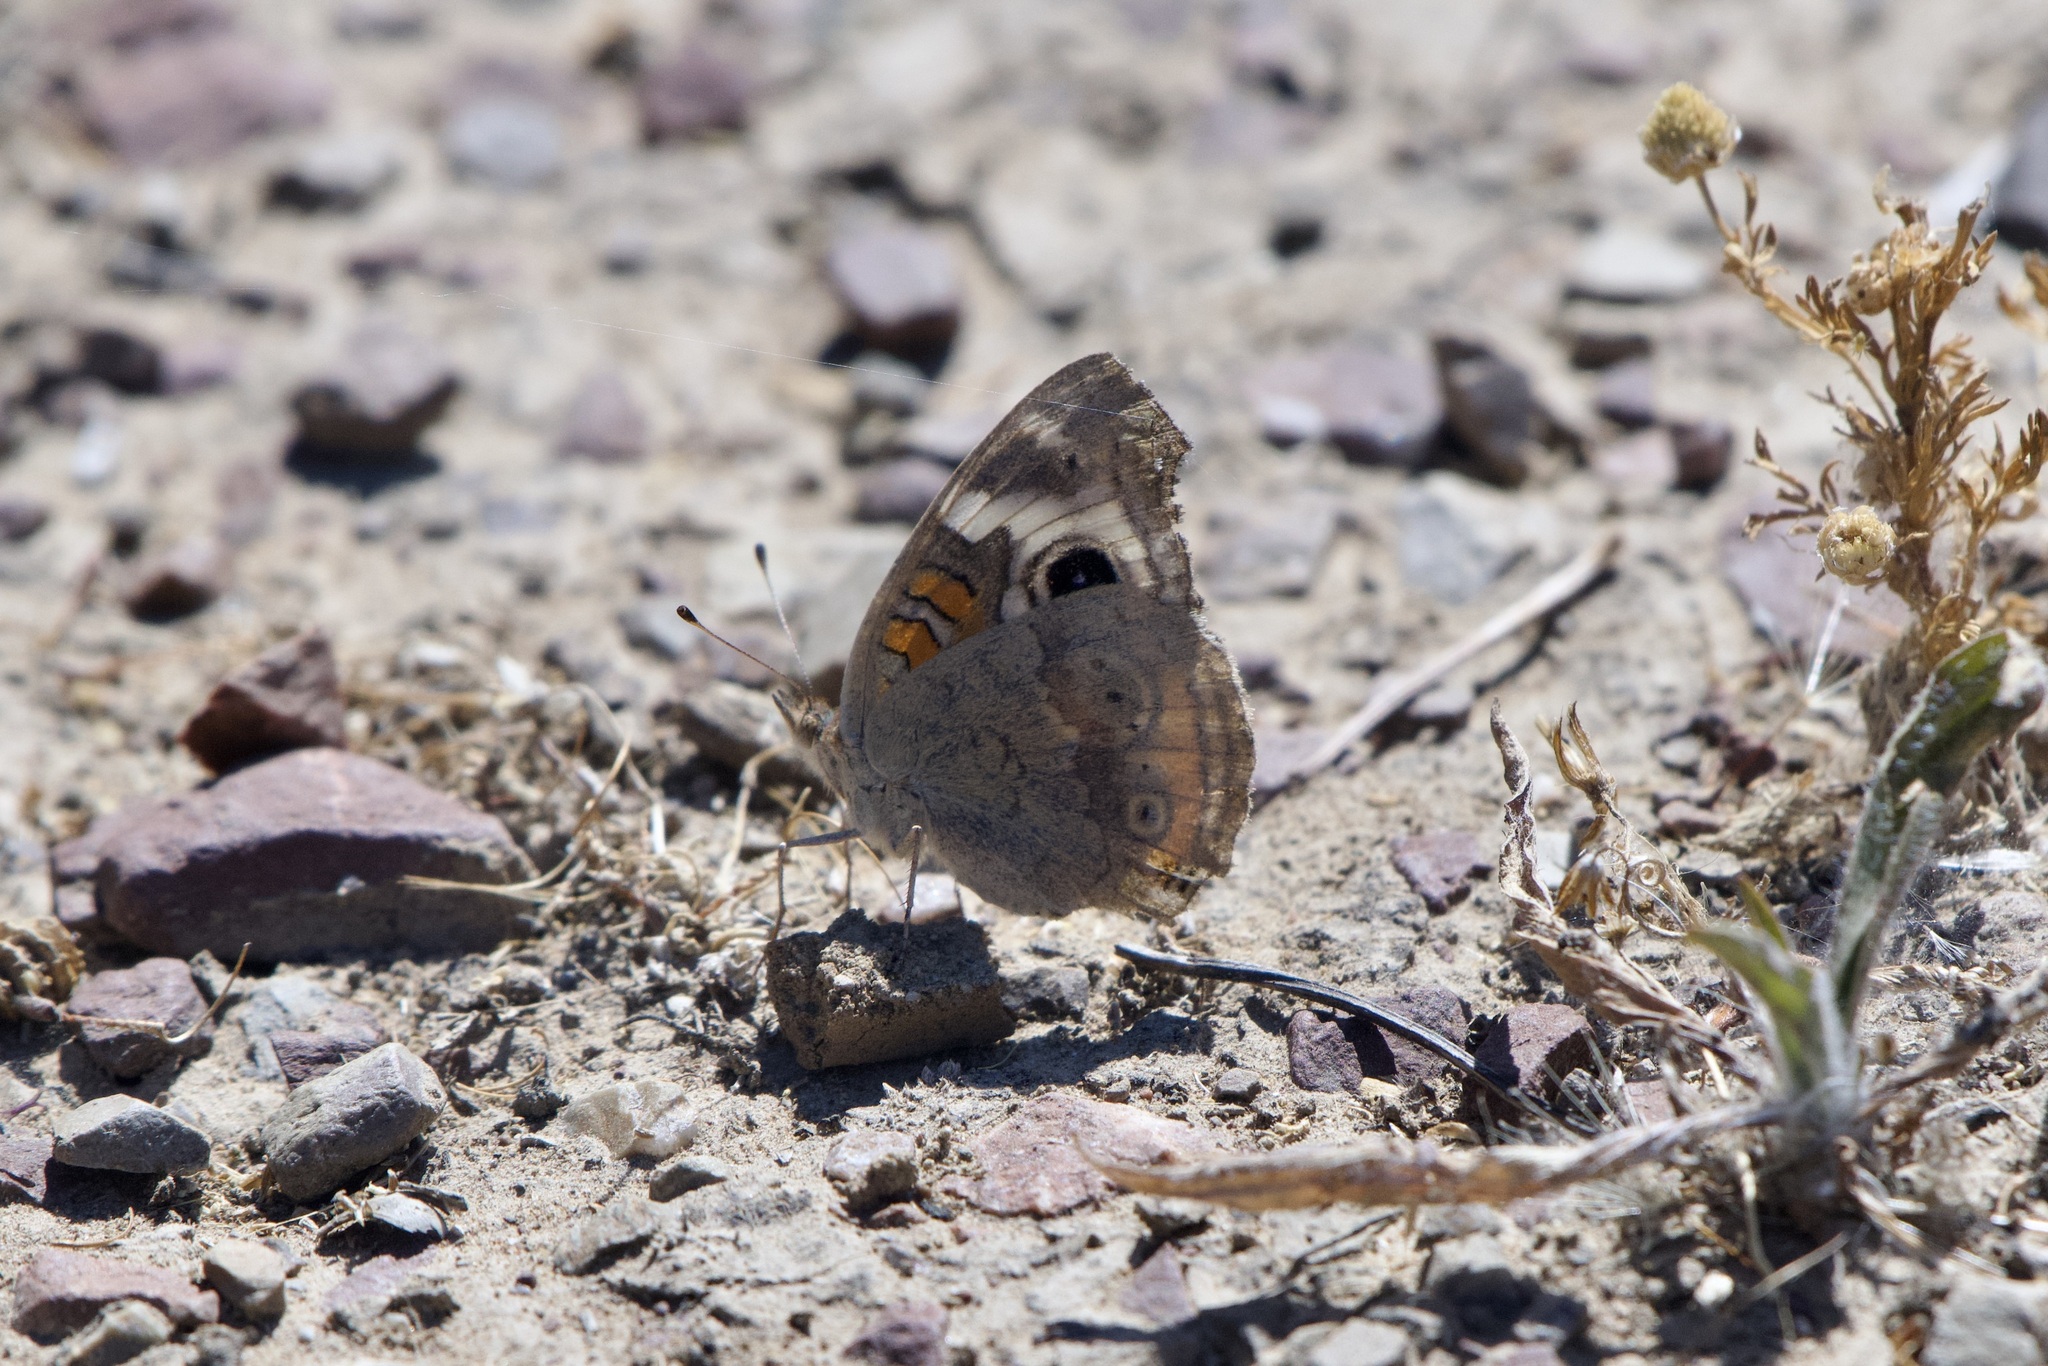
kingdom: Animalia
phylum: Arthropoda
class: Insecta
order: Lepidoptera
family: Nymphalidae
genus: Junonia
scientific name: Junonia grisea
